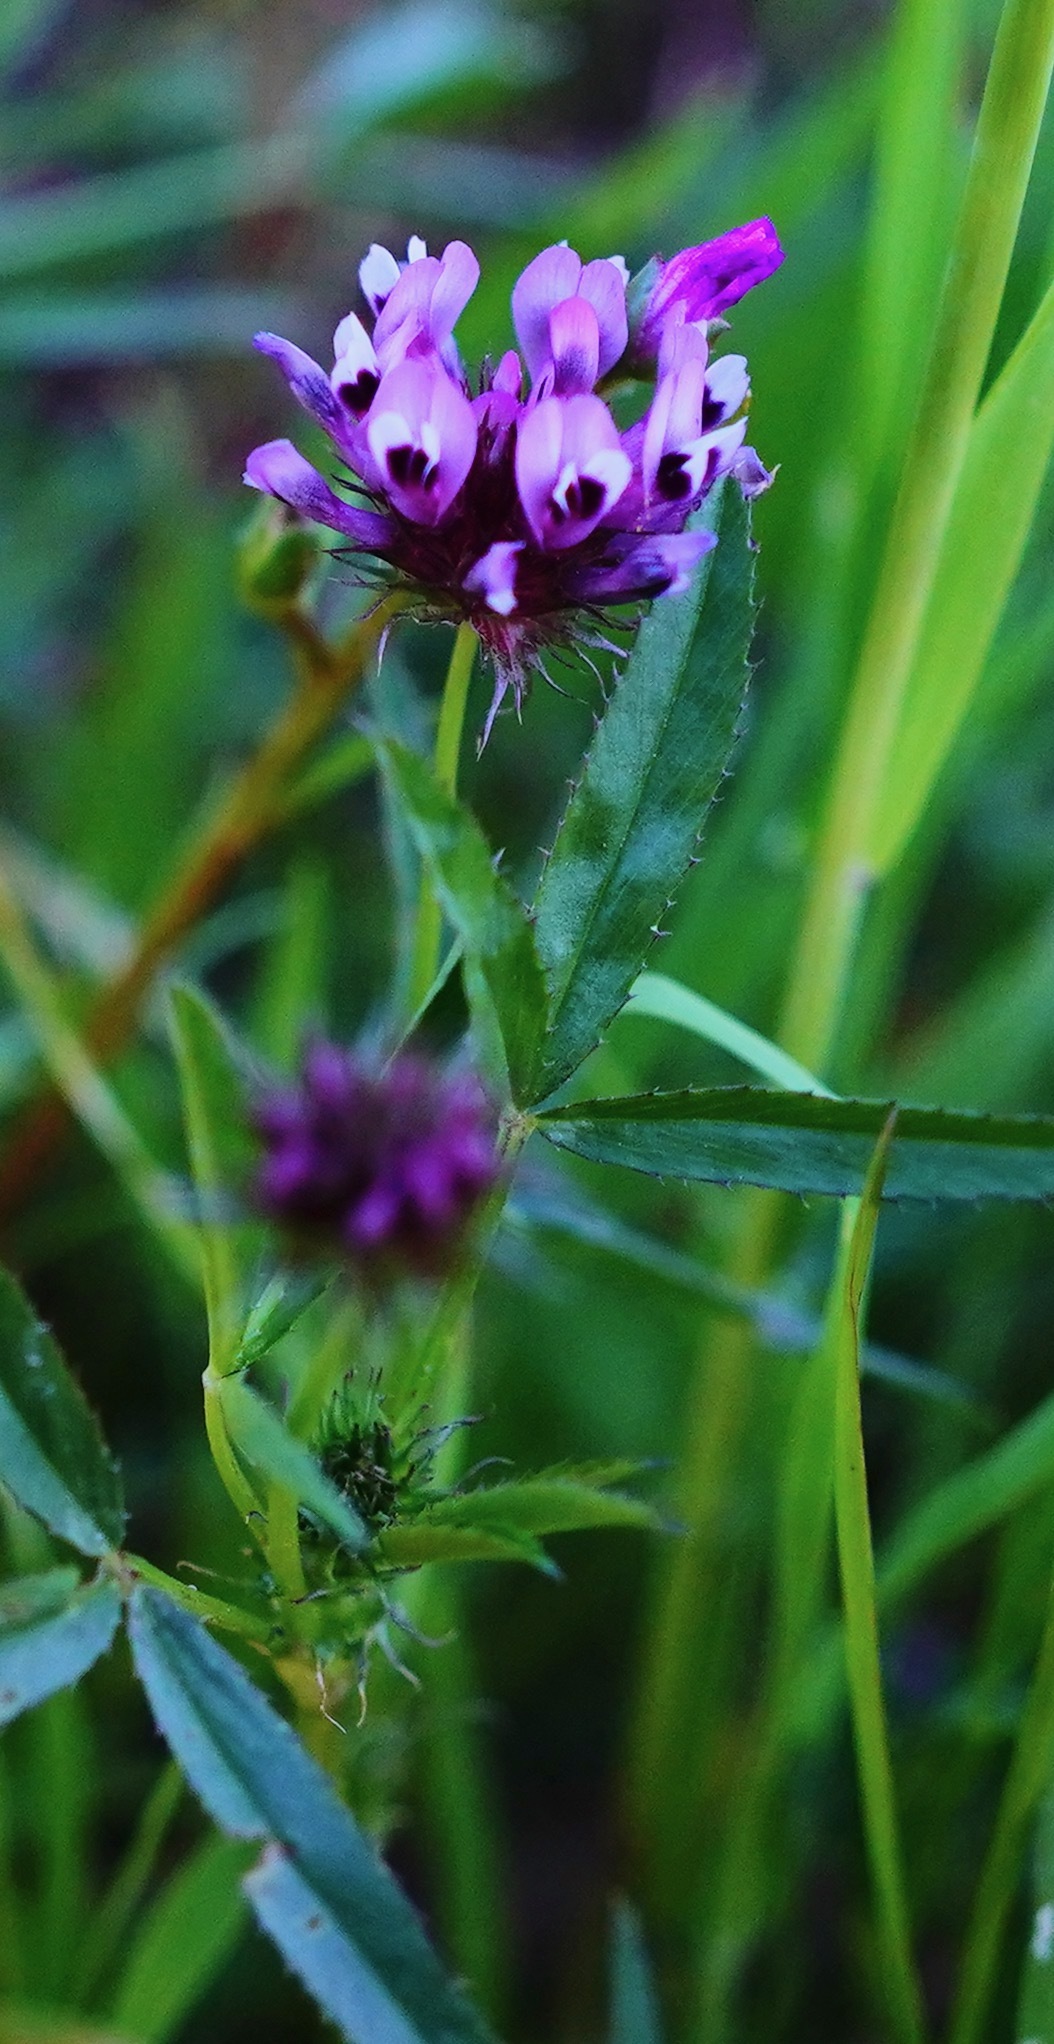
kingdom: Plantae
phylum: Tracheophyta
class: Magnoliopsida
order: Fabales
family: Fabaceae
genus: Trifolium
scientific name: Trifolium willdenovii
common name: Tomcat clover
